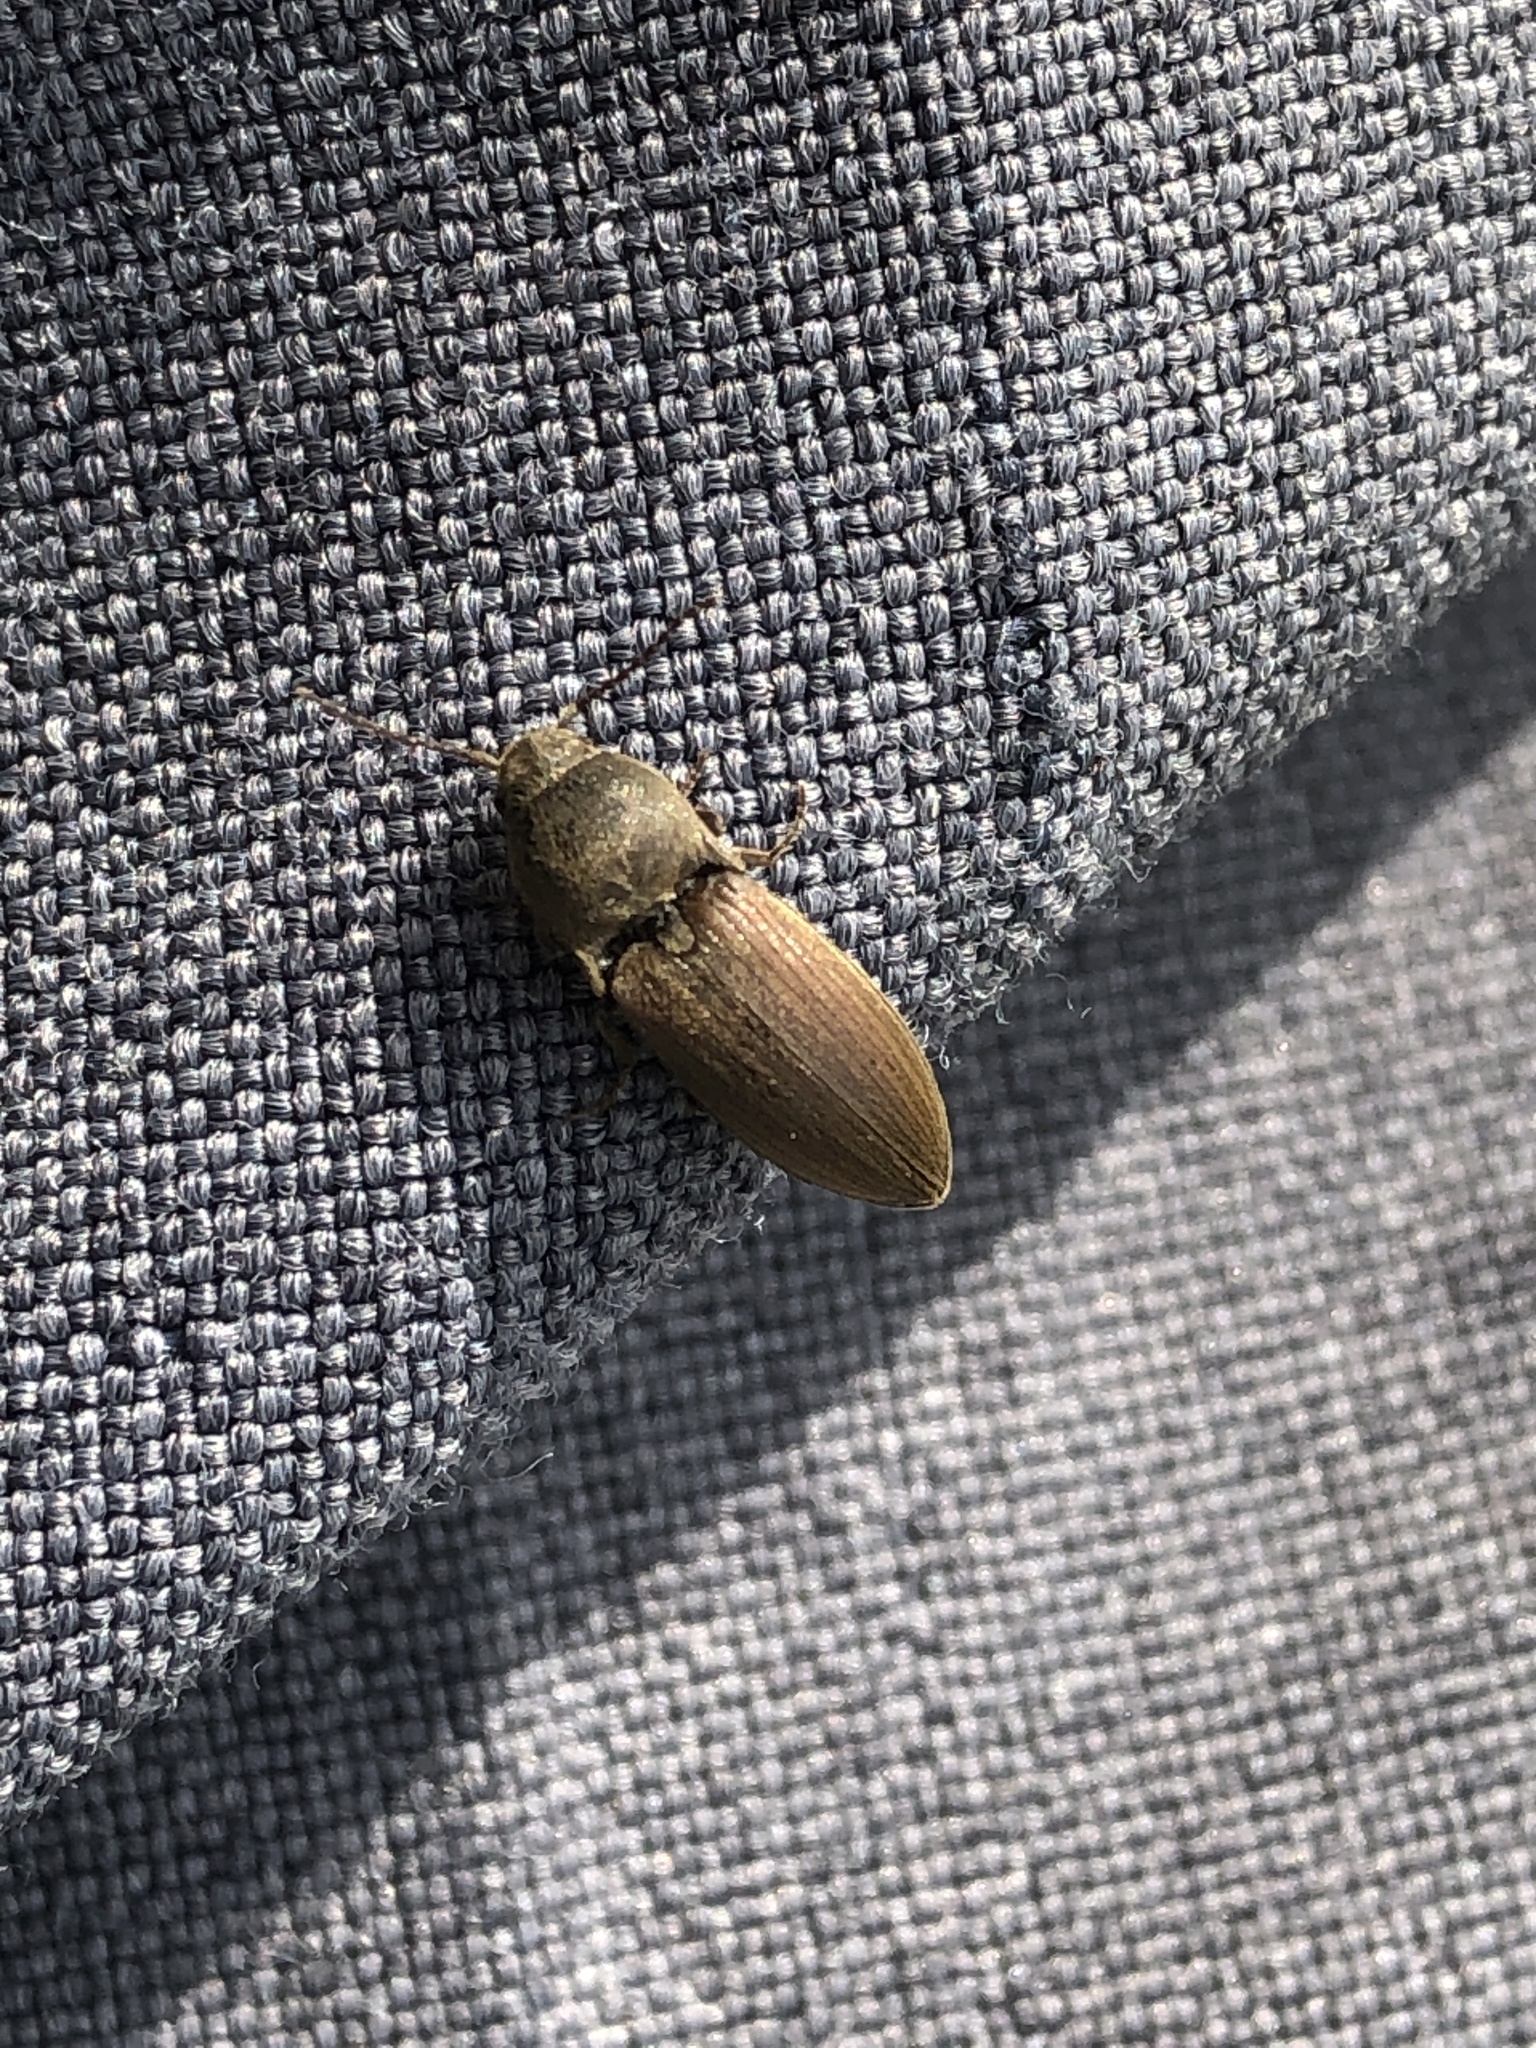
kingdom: Animalia
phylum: Arthropoda
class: Insecta
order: Coleoptera
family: Elateridae
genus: Agriotes
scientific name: Agriotes obscurus
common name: Dusky wireworm
